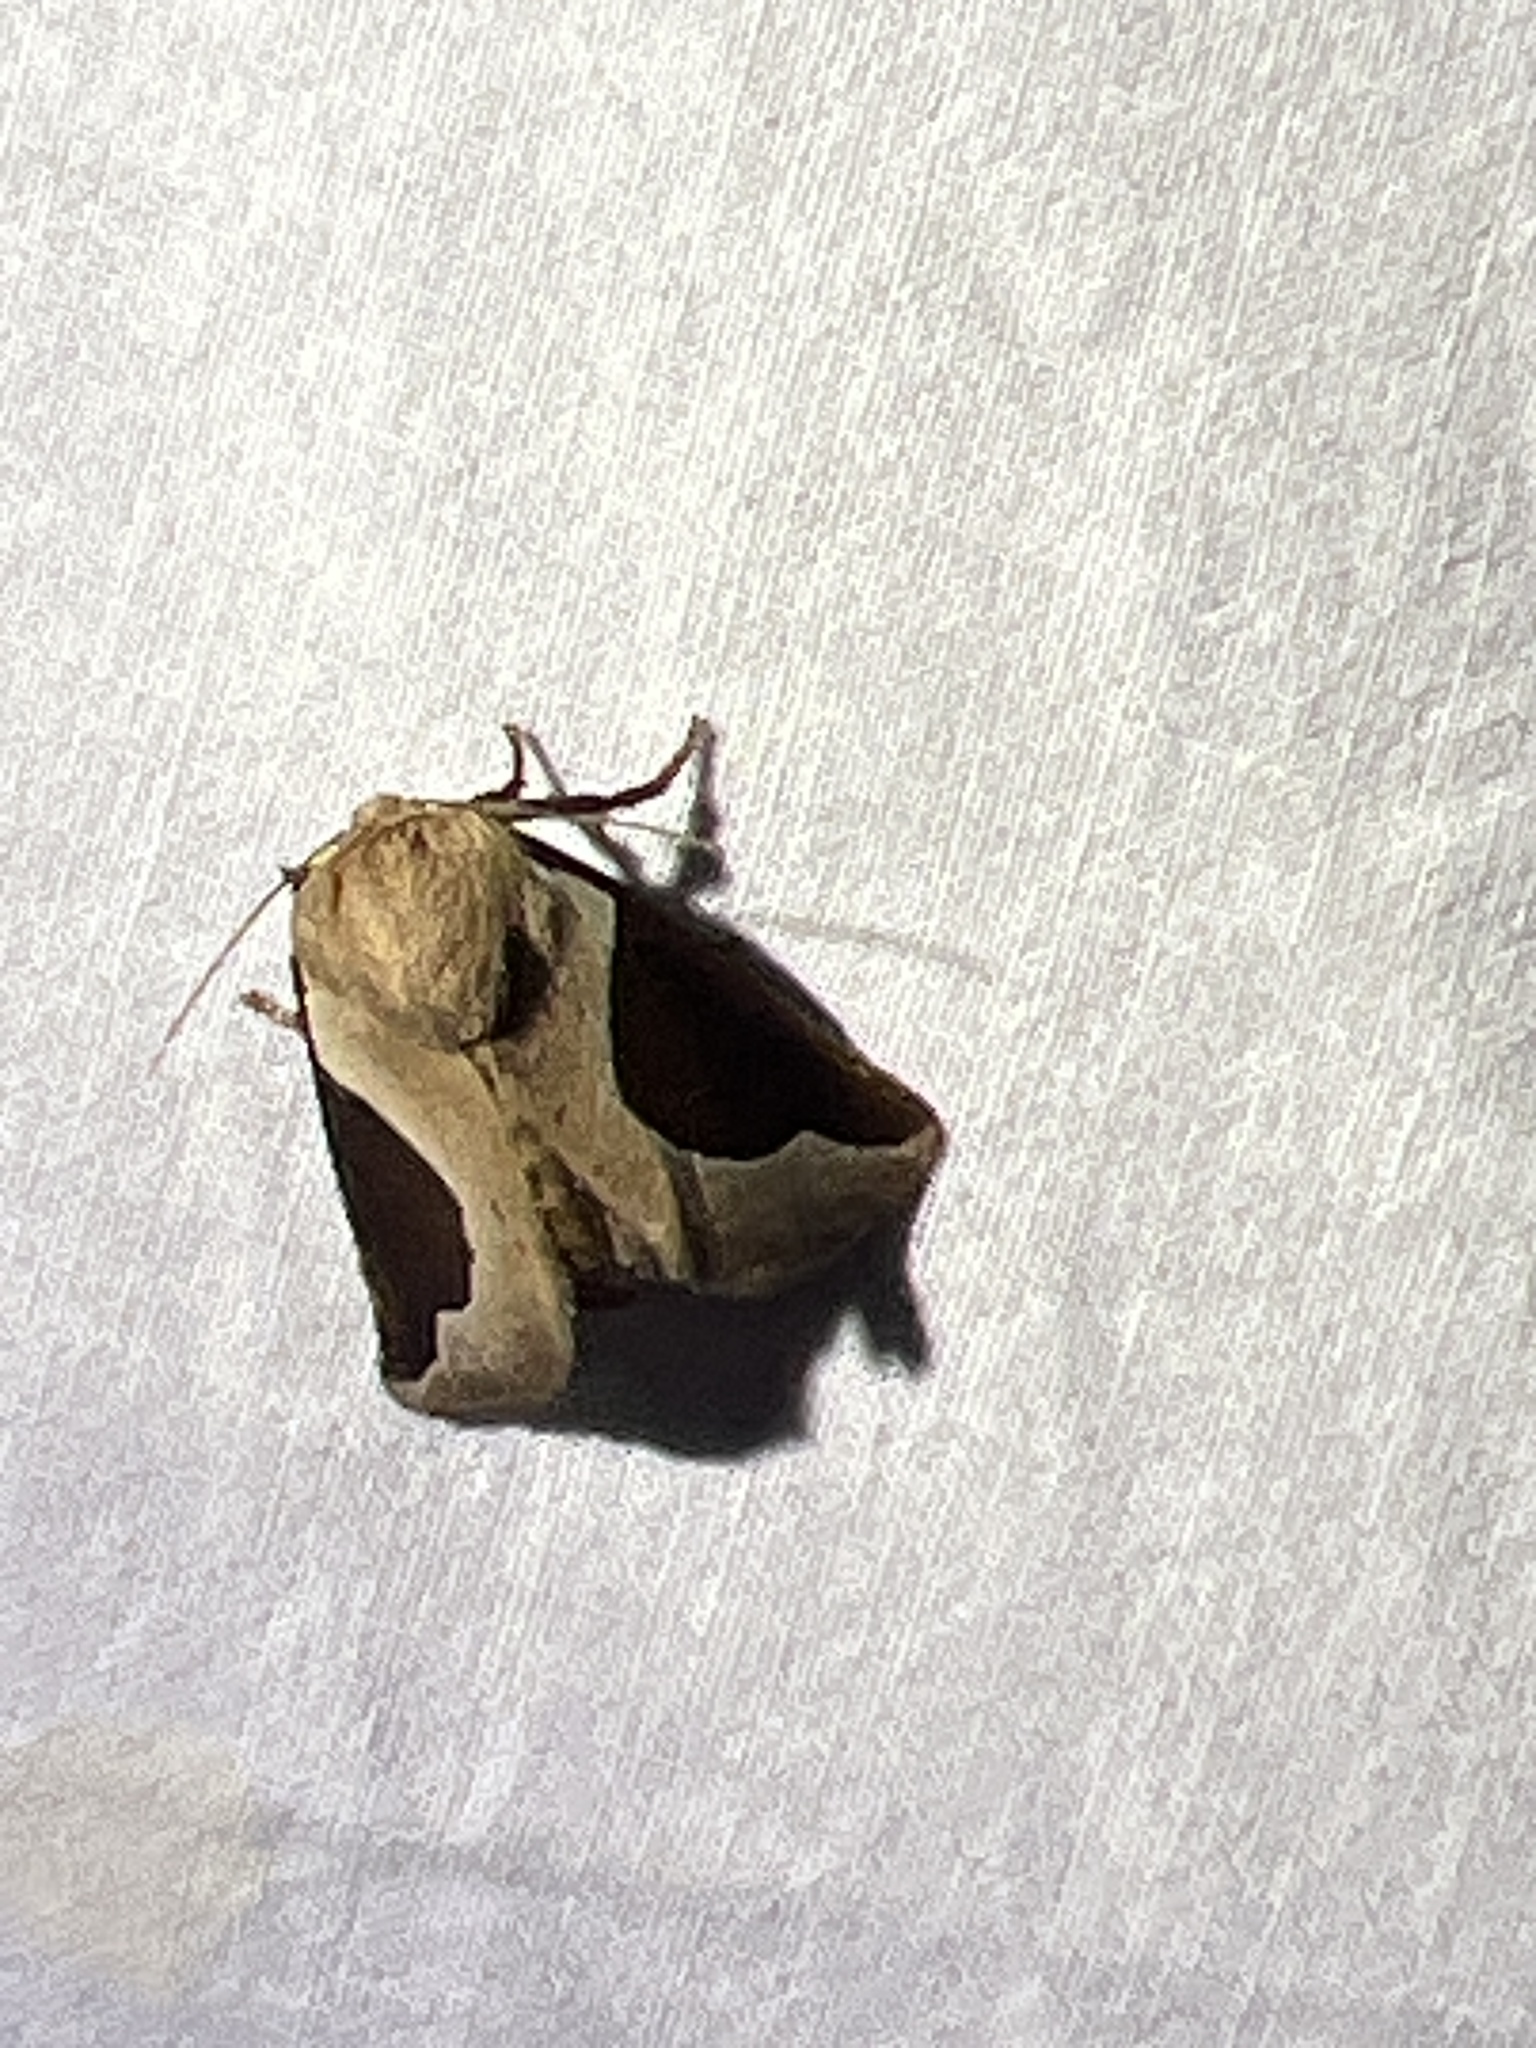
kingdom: Animalia
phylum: Arthropoda
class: Insecta
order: Lepidoptera
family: Limacodidae
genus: Prolimacodes
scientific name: Prolimacodes badia
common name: Skiff moth
